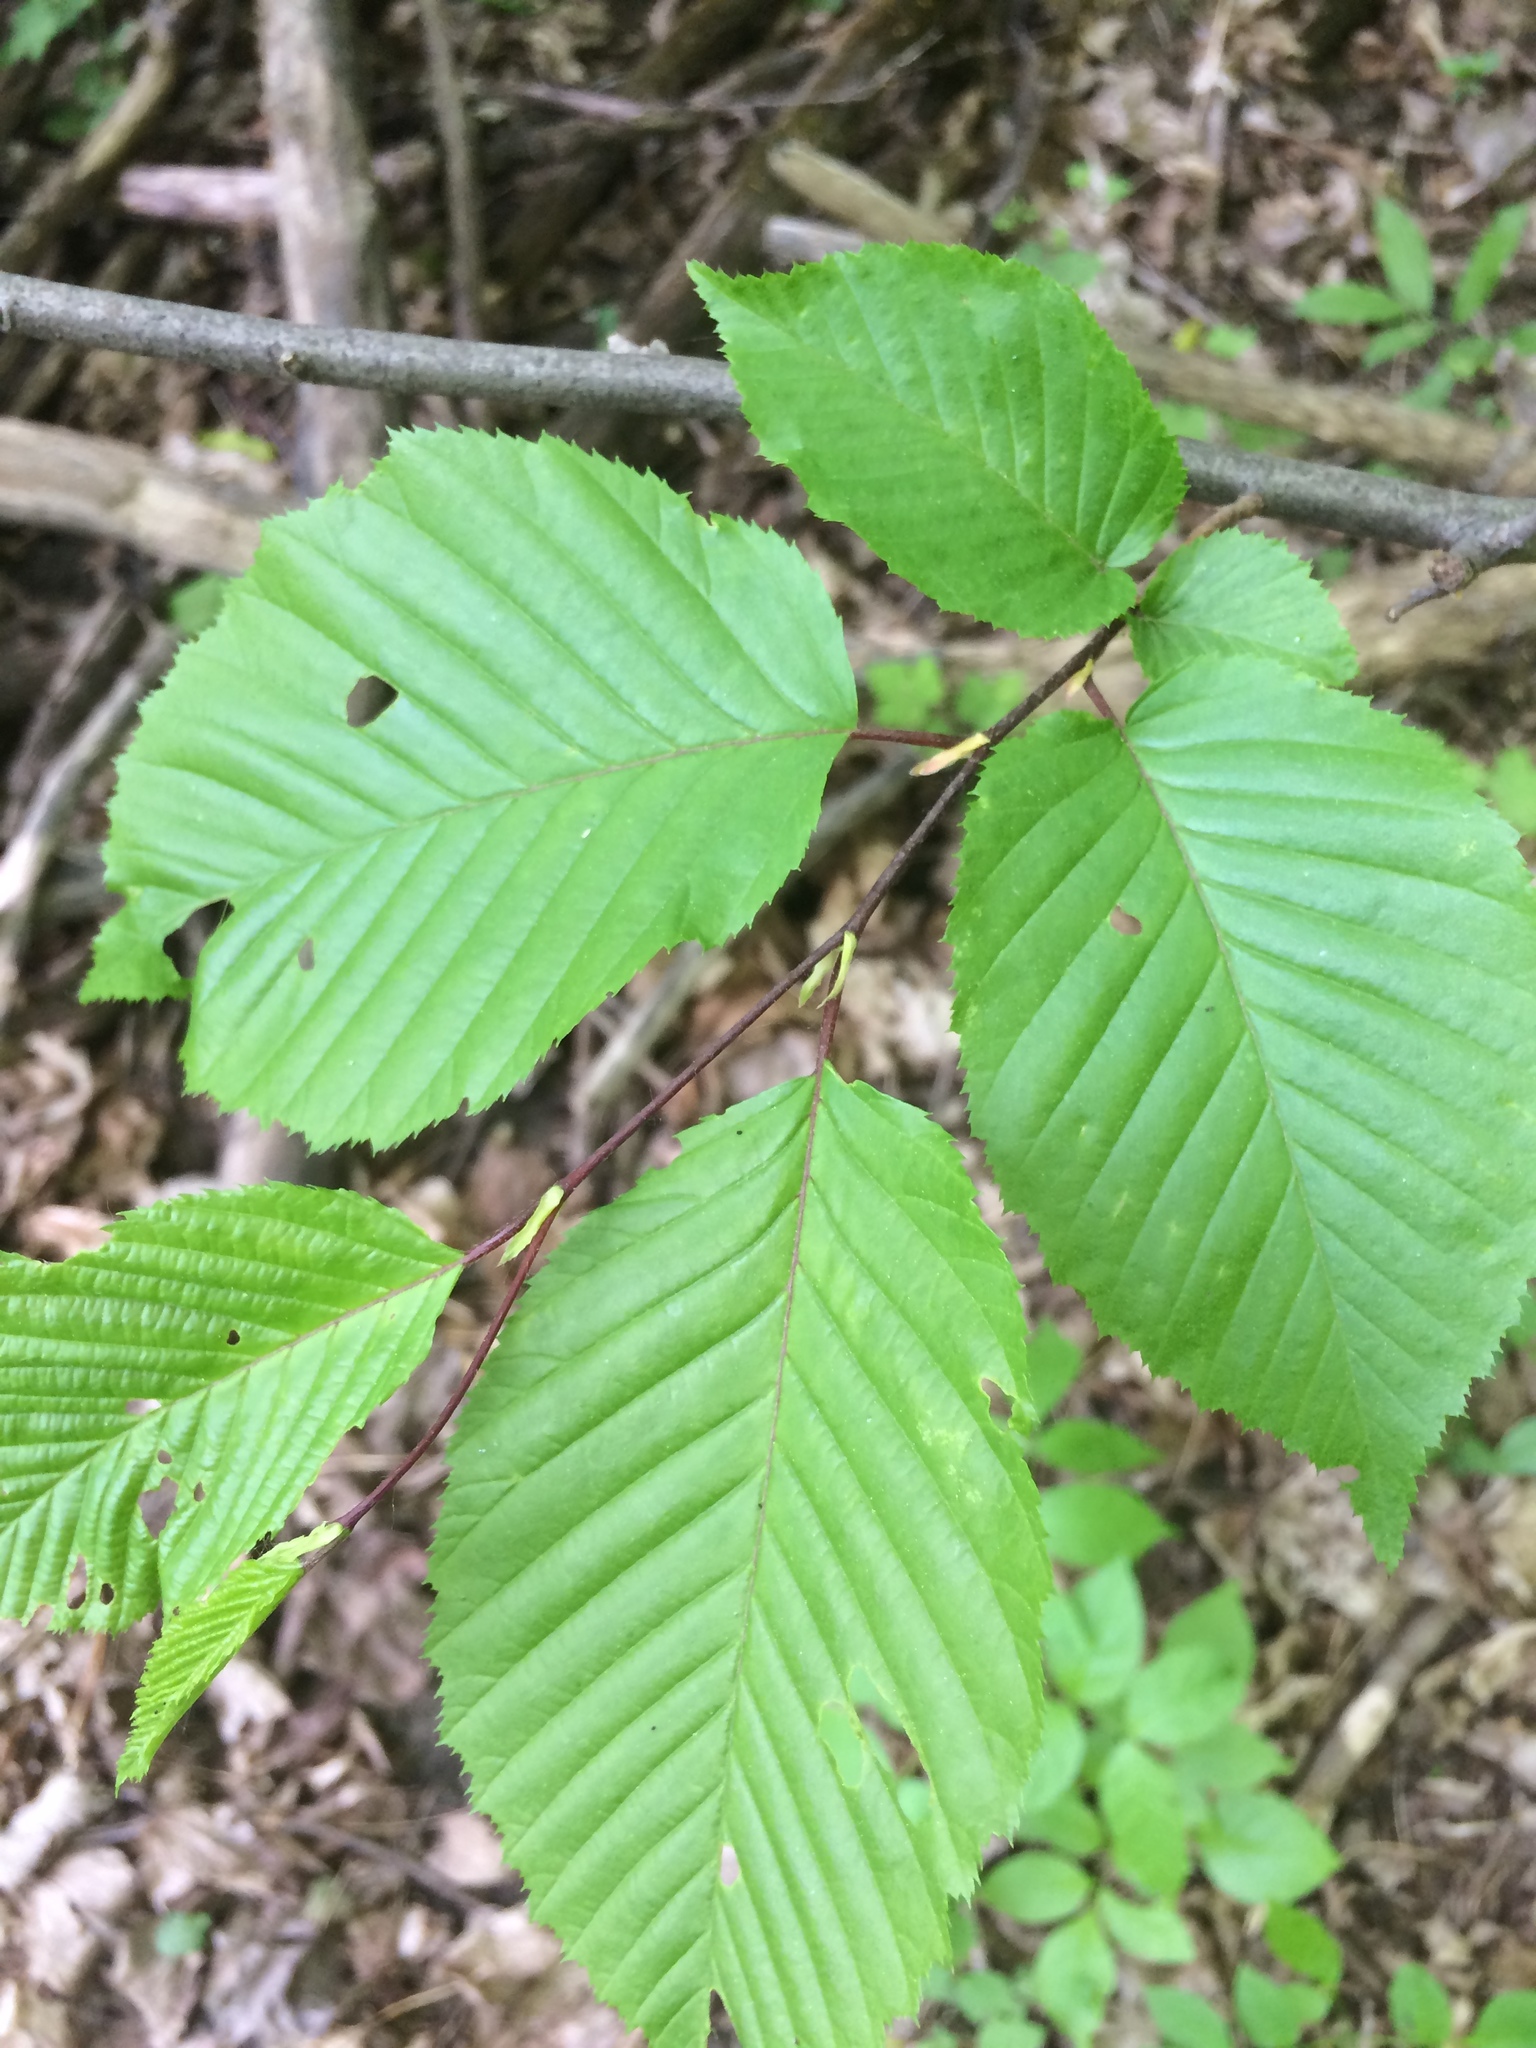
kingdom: Plantae
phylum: Tracheophyta
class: Magnoliopsida
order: Fagales
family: Betulaceae
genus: Carpinus
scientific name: Carpinus caroliniana
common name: American hornbeam
